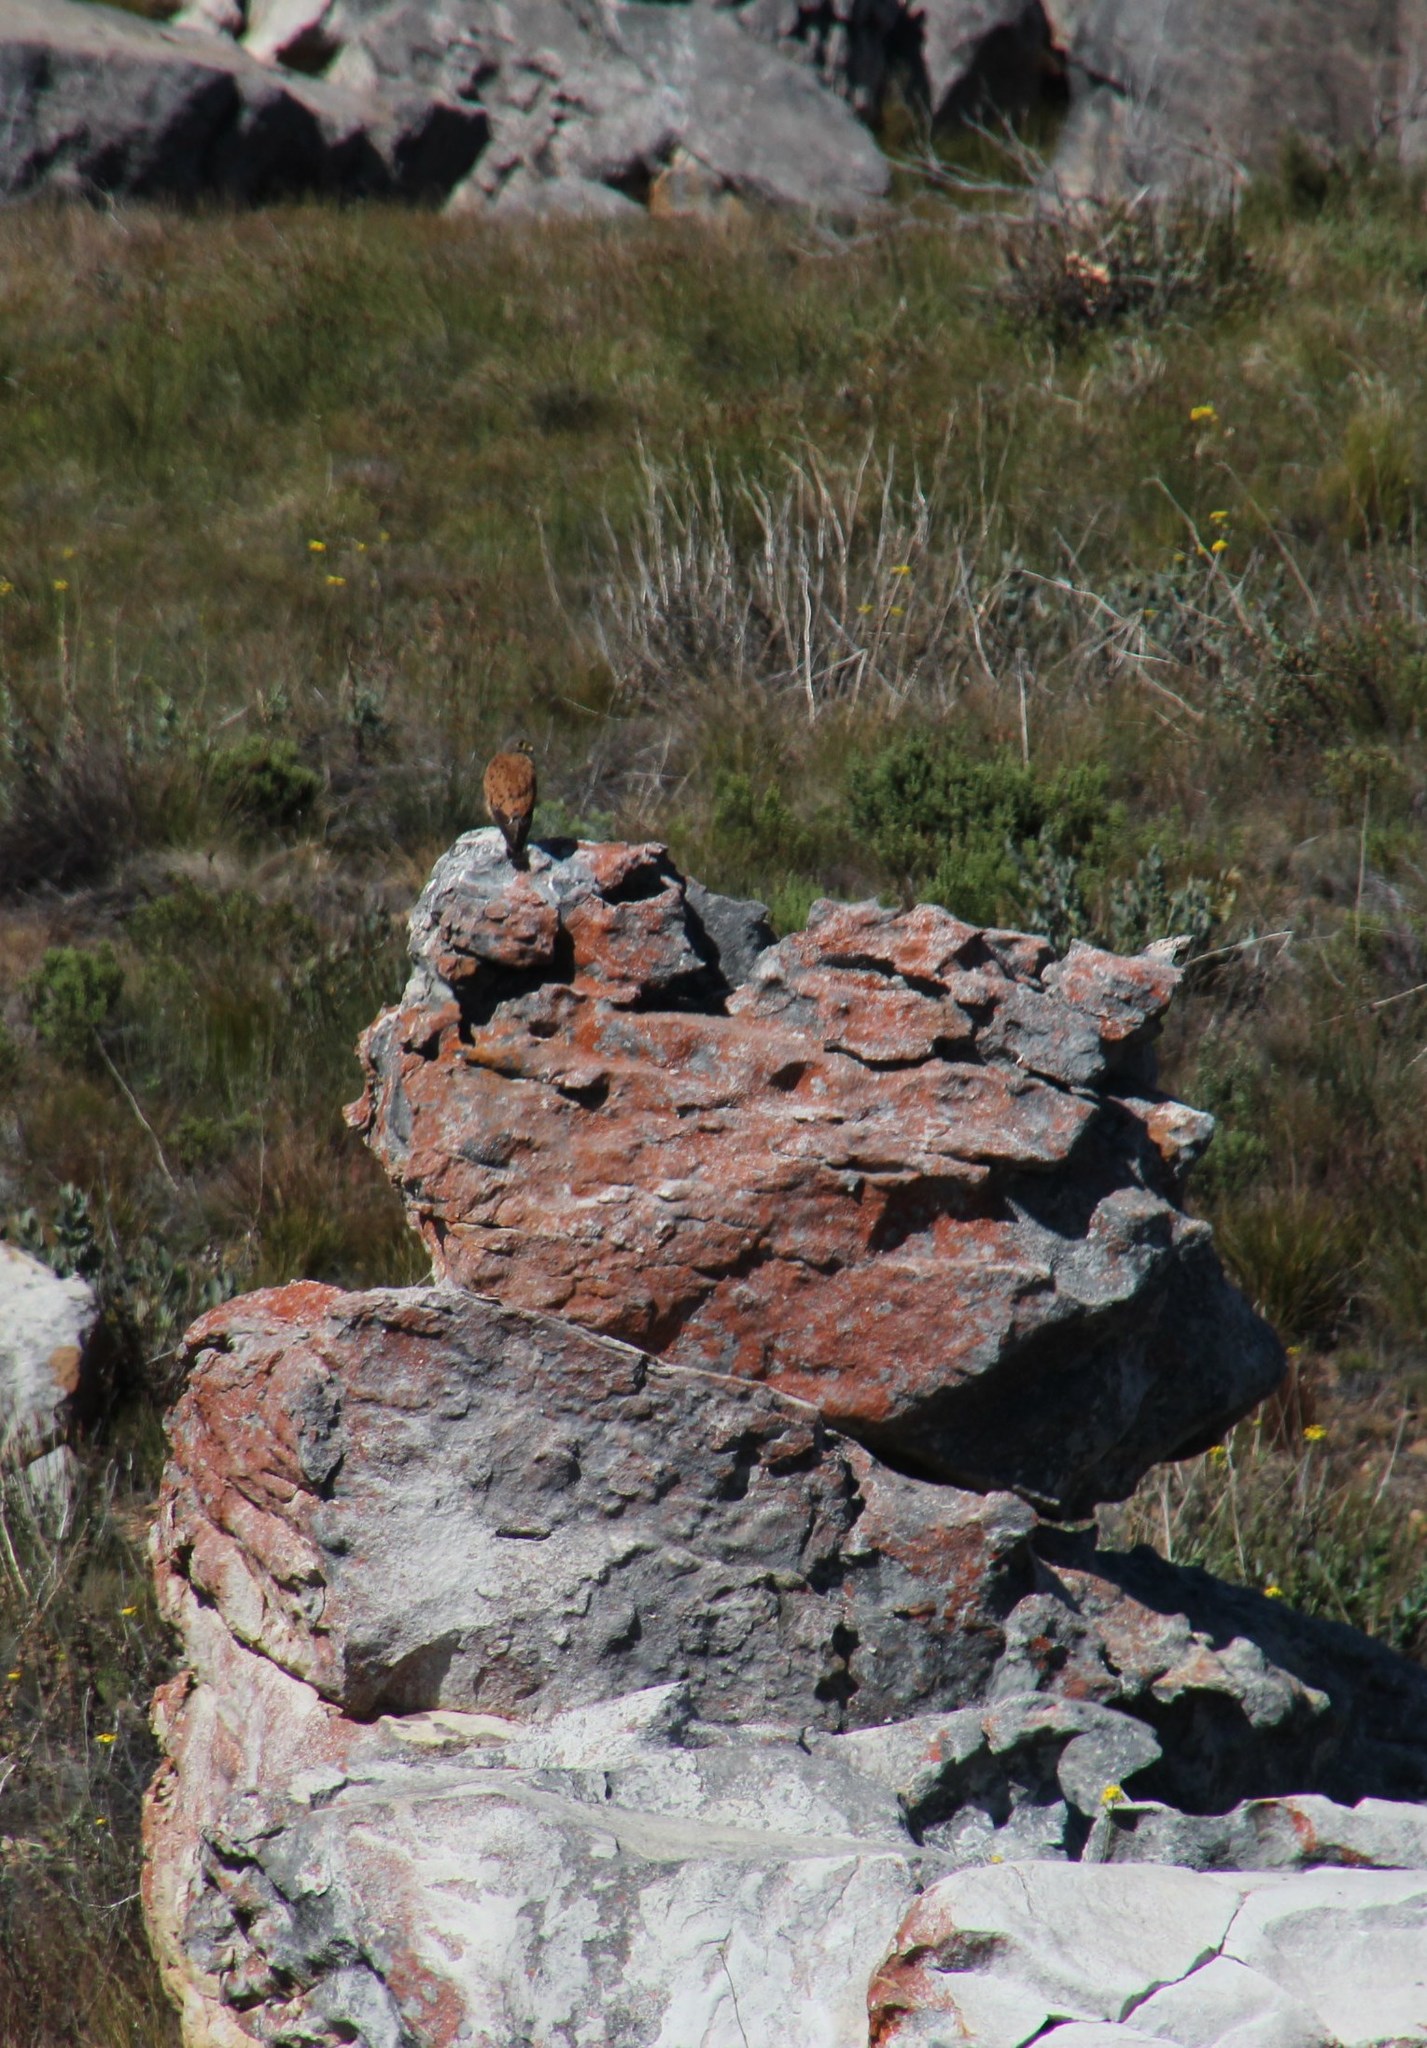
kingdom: Animalia
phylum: Chordata
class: Aves
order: Falconiformes
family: Falconidae
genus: Falco
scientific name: Falco rupicolus
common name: Rock kestrel
